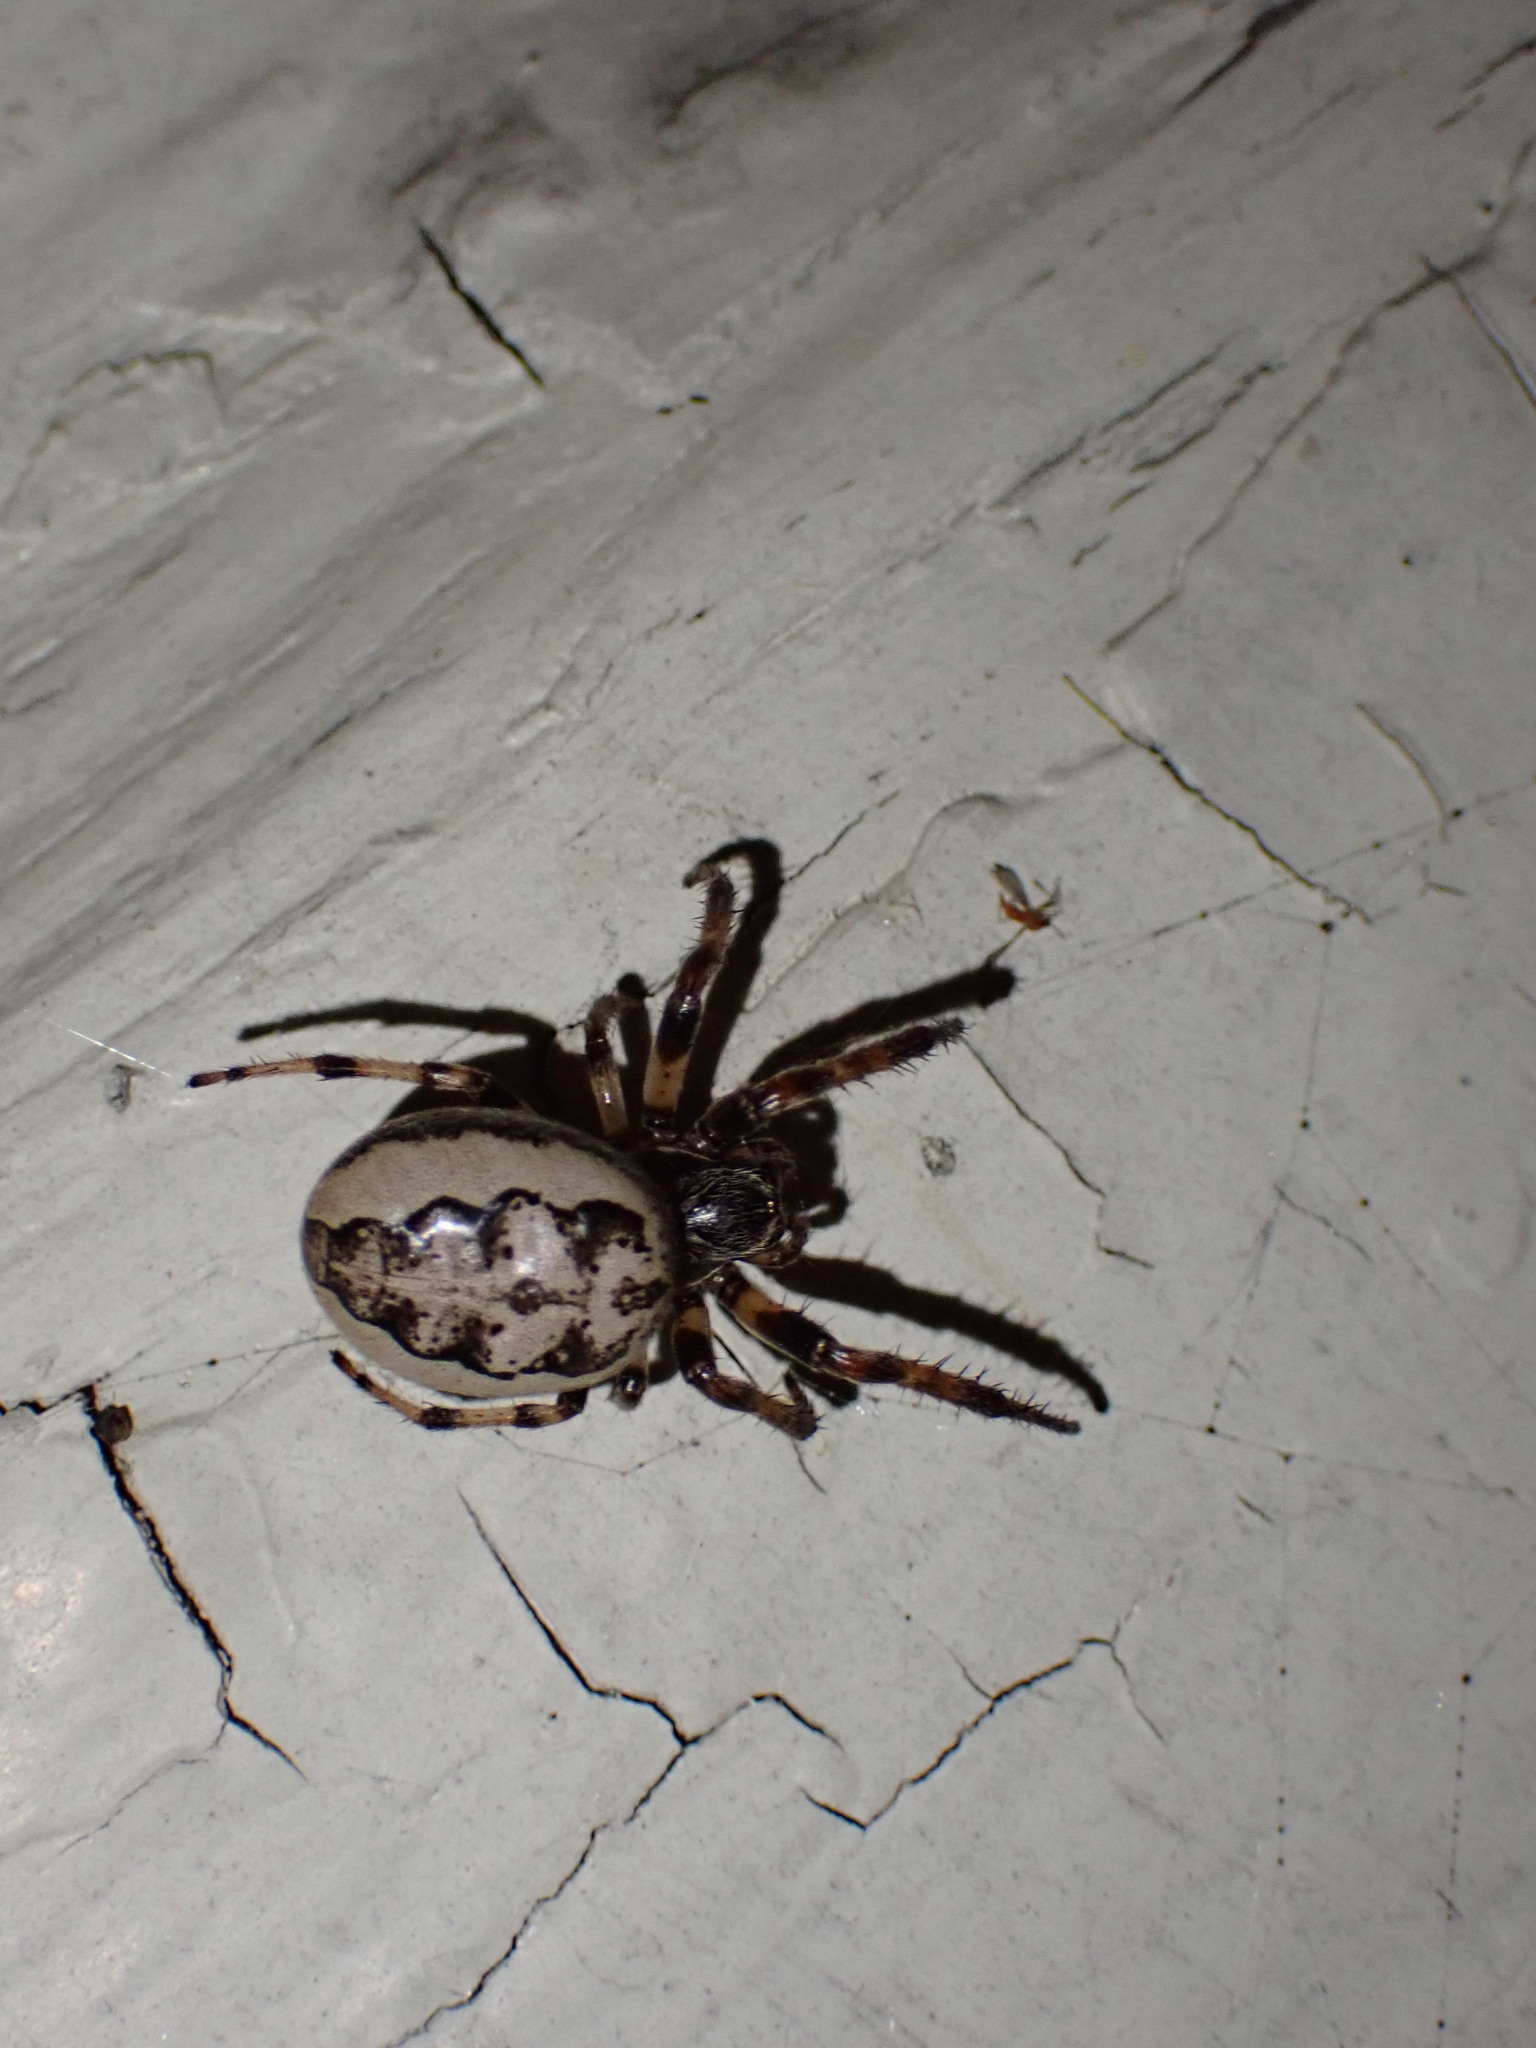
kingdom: Animalia
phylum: Arthropoda
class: Arachnida
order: Araneae
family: Araneidae
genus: Larinioides
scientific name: Larinioides cornutus
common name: Furrow orbweaver
